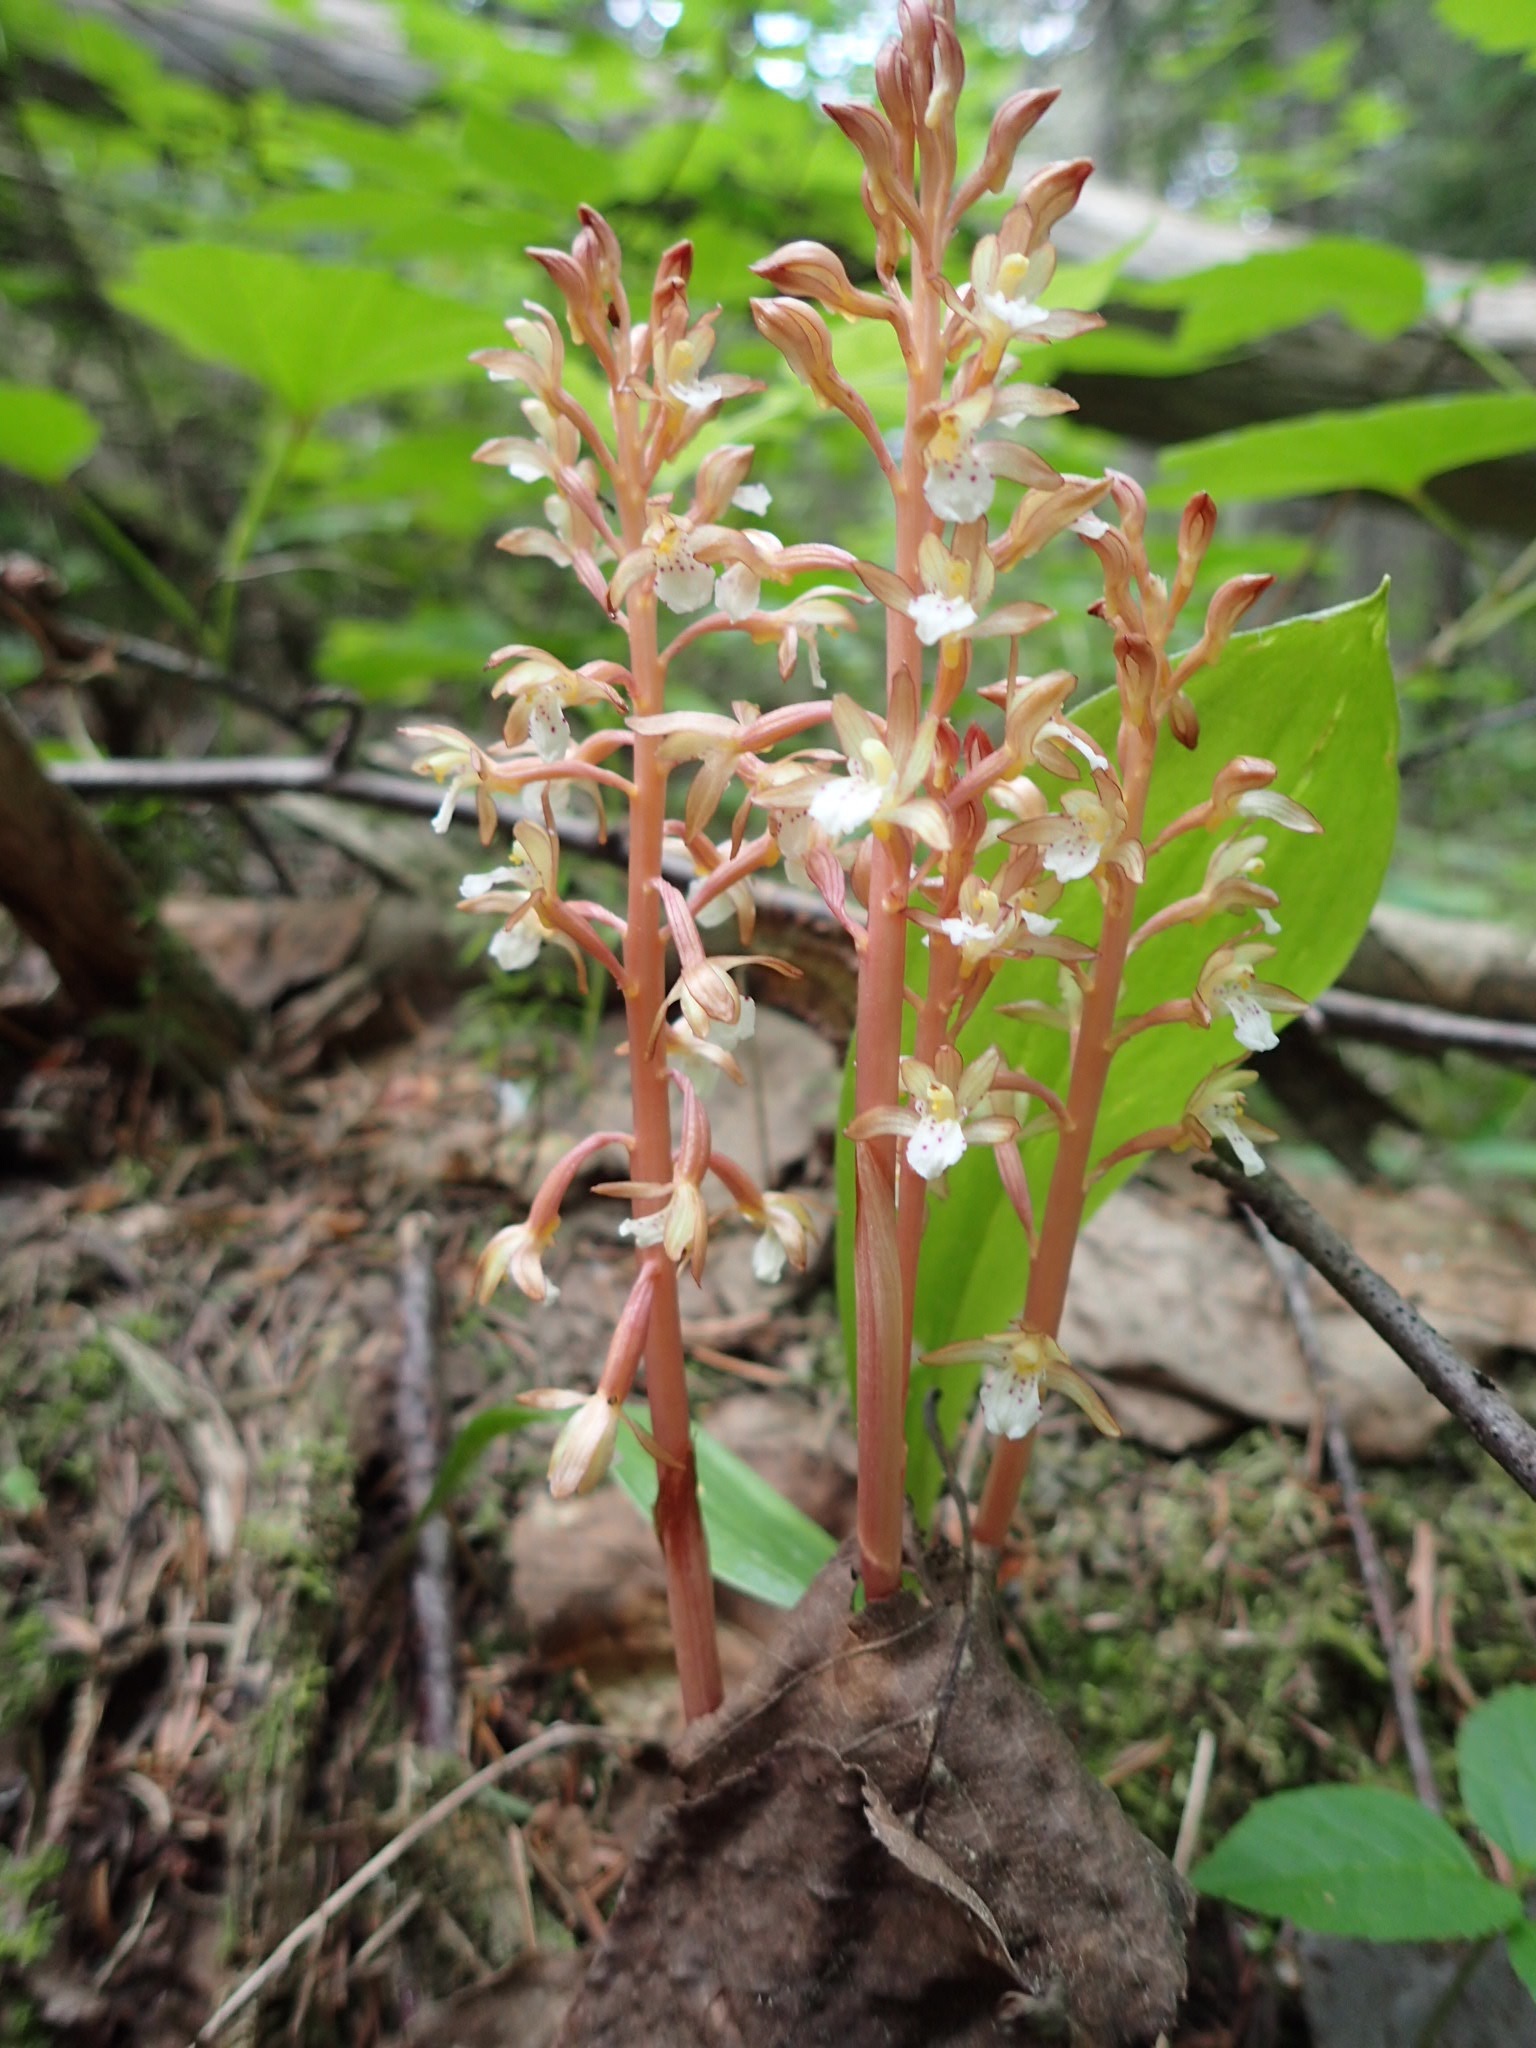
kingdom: Plantae
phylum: Tracheophyta
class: Liliopsida
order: Asparagales
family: Orchidaceae
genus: Corallorhiza
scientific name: Corallorhiza maculata
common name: Spotted coralroot
